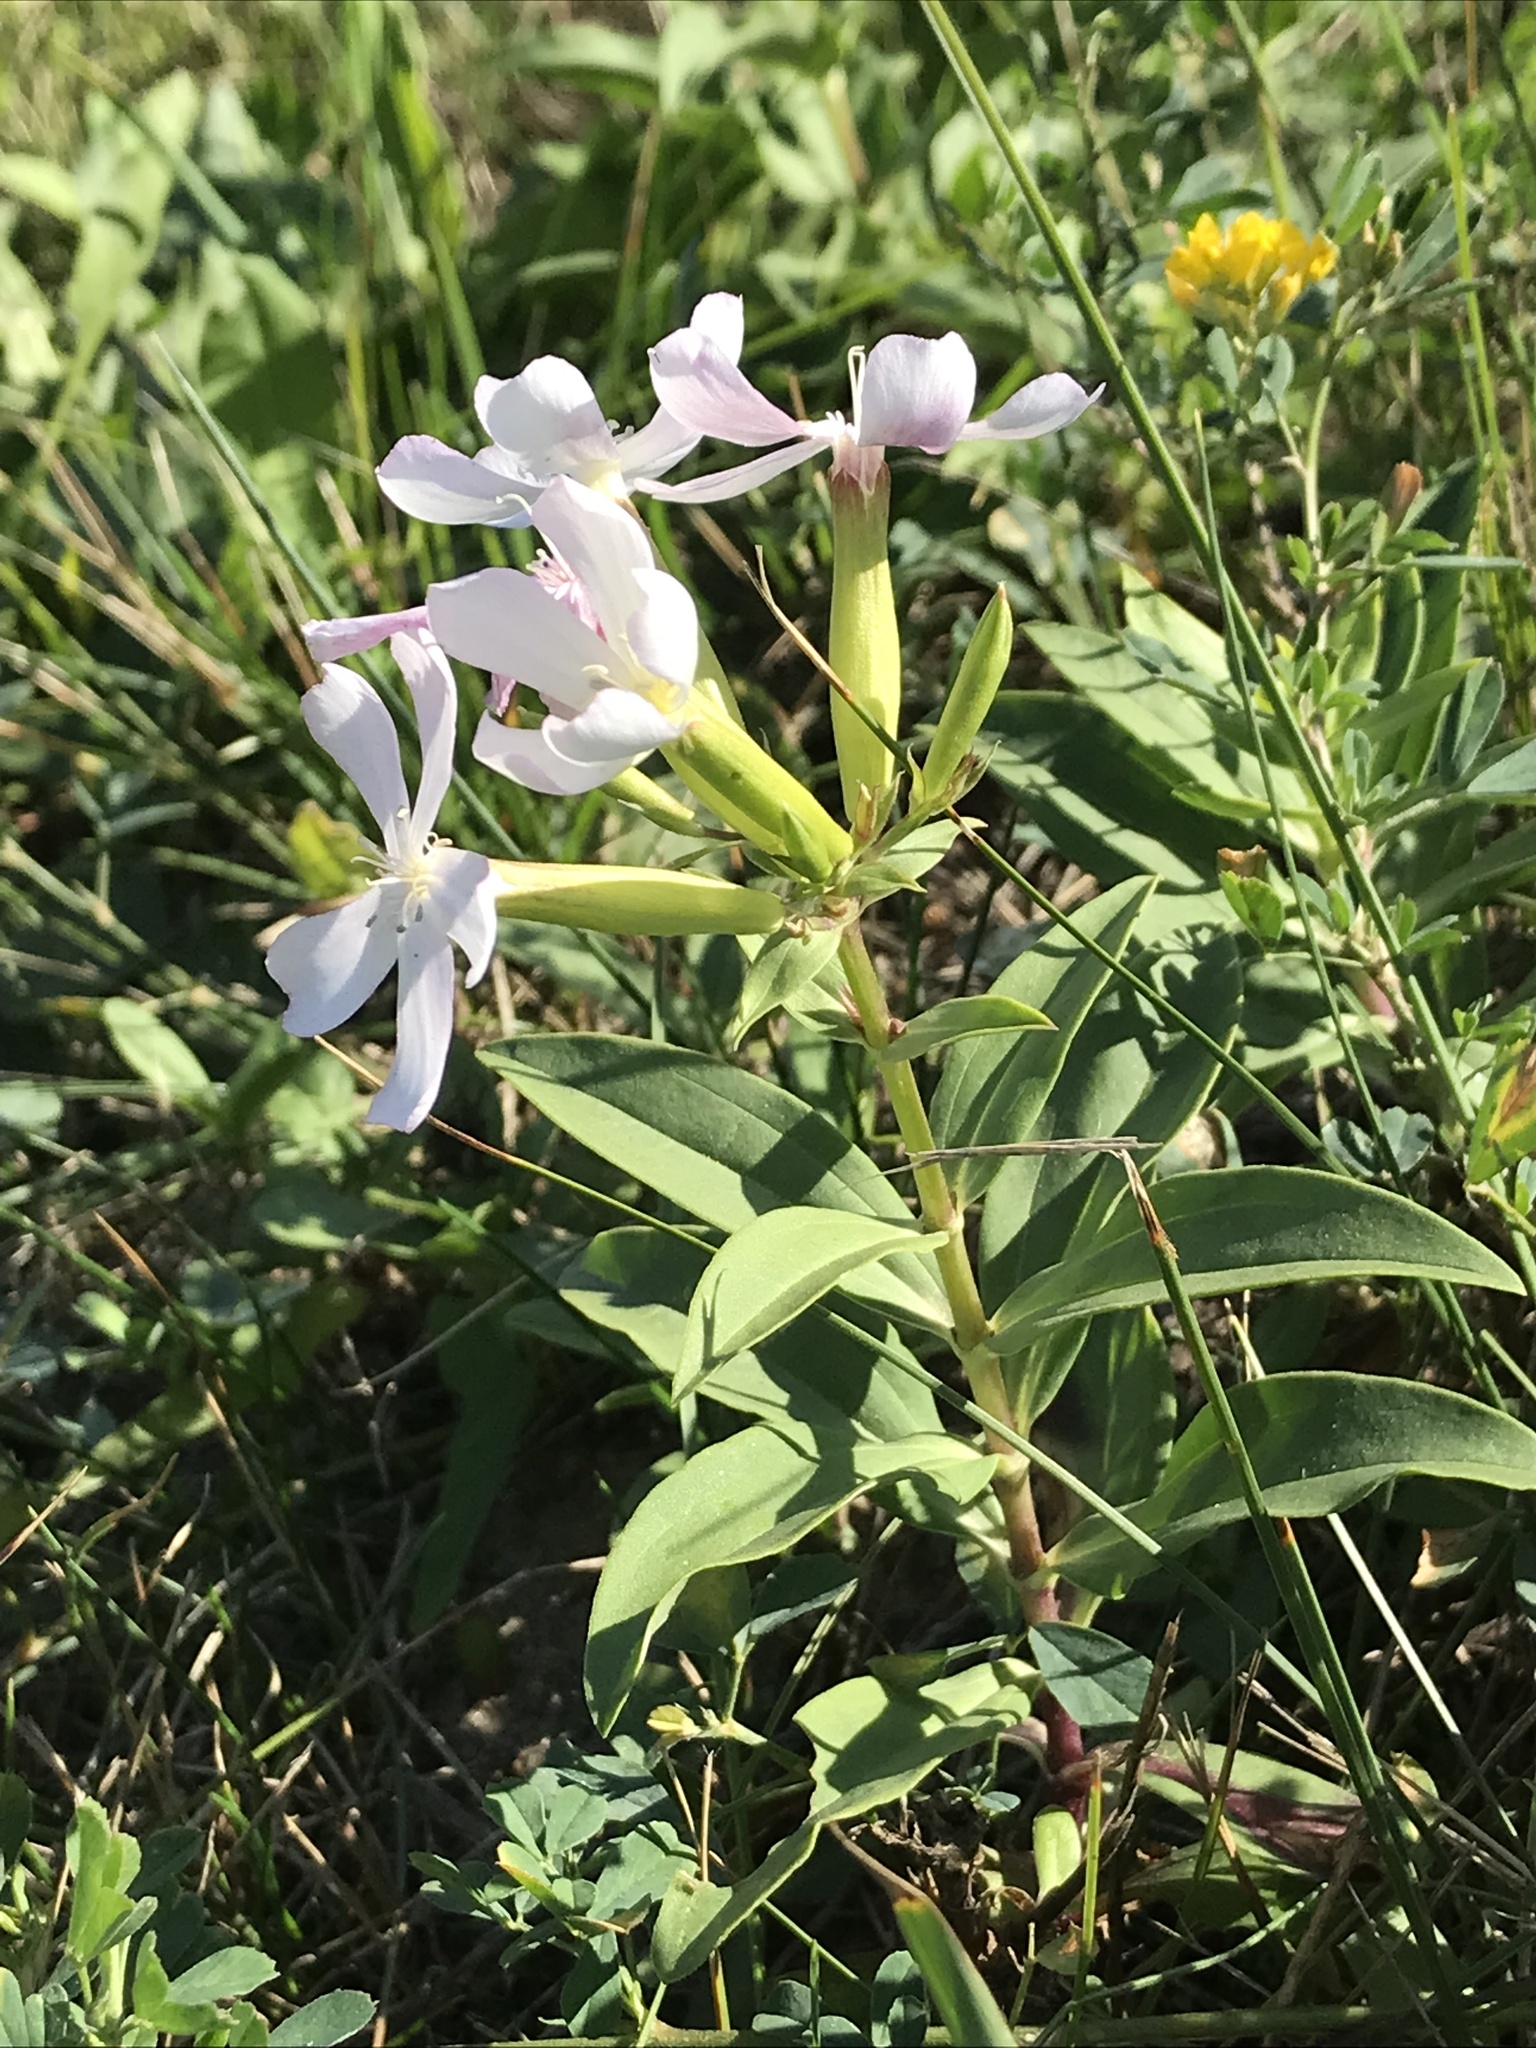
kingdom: Plantae
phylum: Tracheophyta
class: Magnoliopsida
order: Caryophyllales
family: Caryophyllaceae
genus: Saponaria
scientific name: Saponaria officinalis
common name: Soapwort
